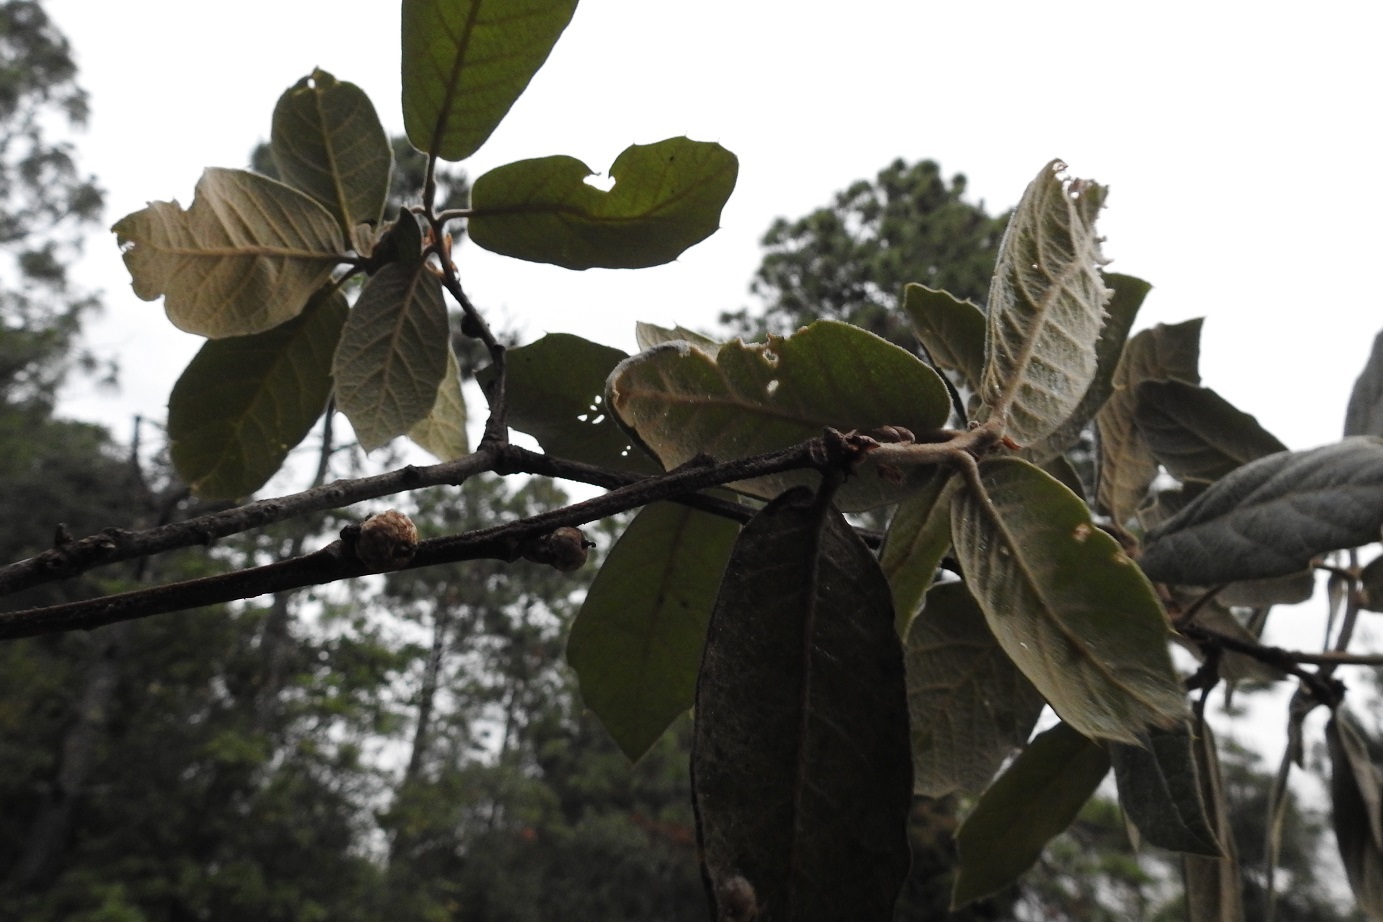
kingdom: Plantae
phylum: Tracheophyta
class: Magnoliopsida
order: Fagales
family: Fagaceae
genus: Quercus
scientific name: Quercus crassifolia
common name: Leather leaf mexican oak
